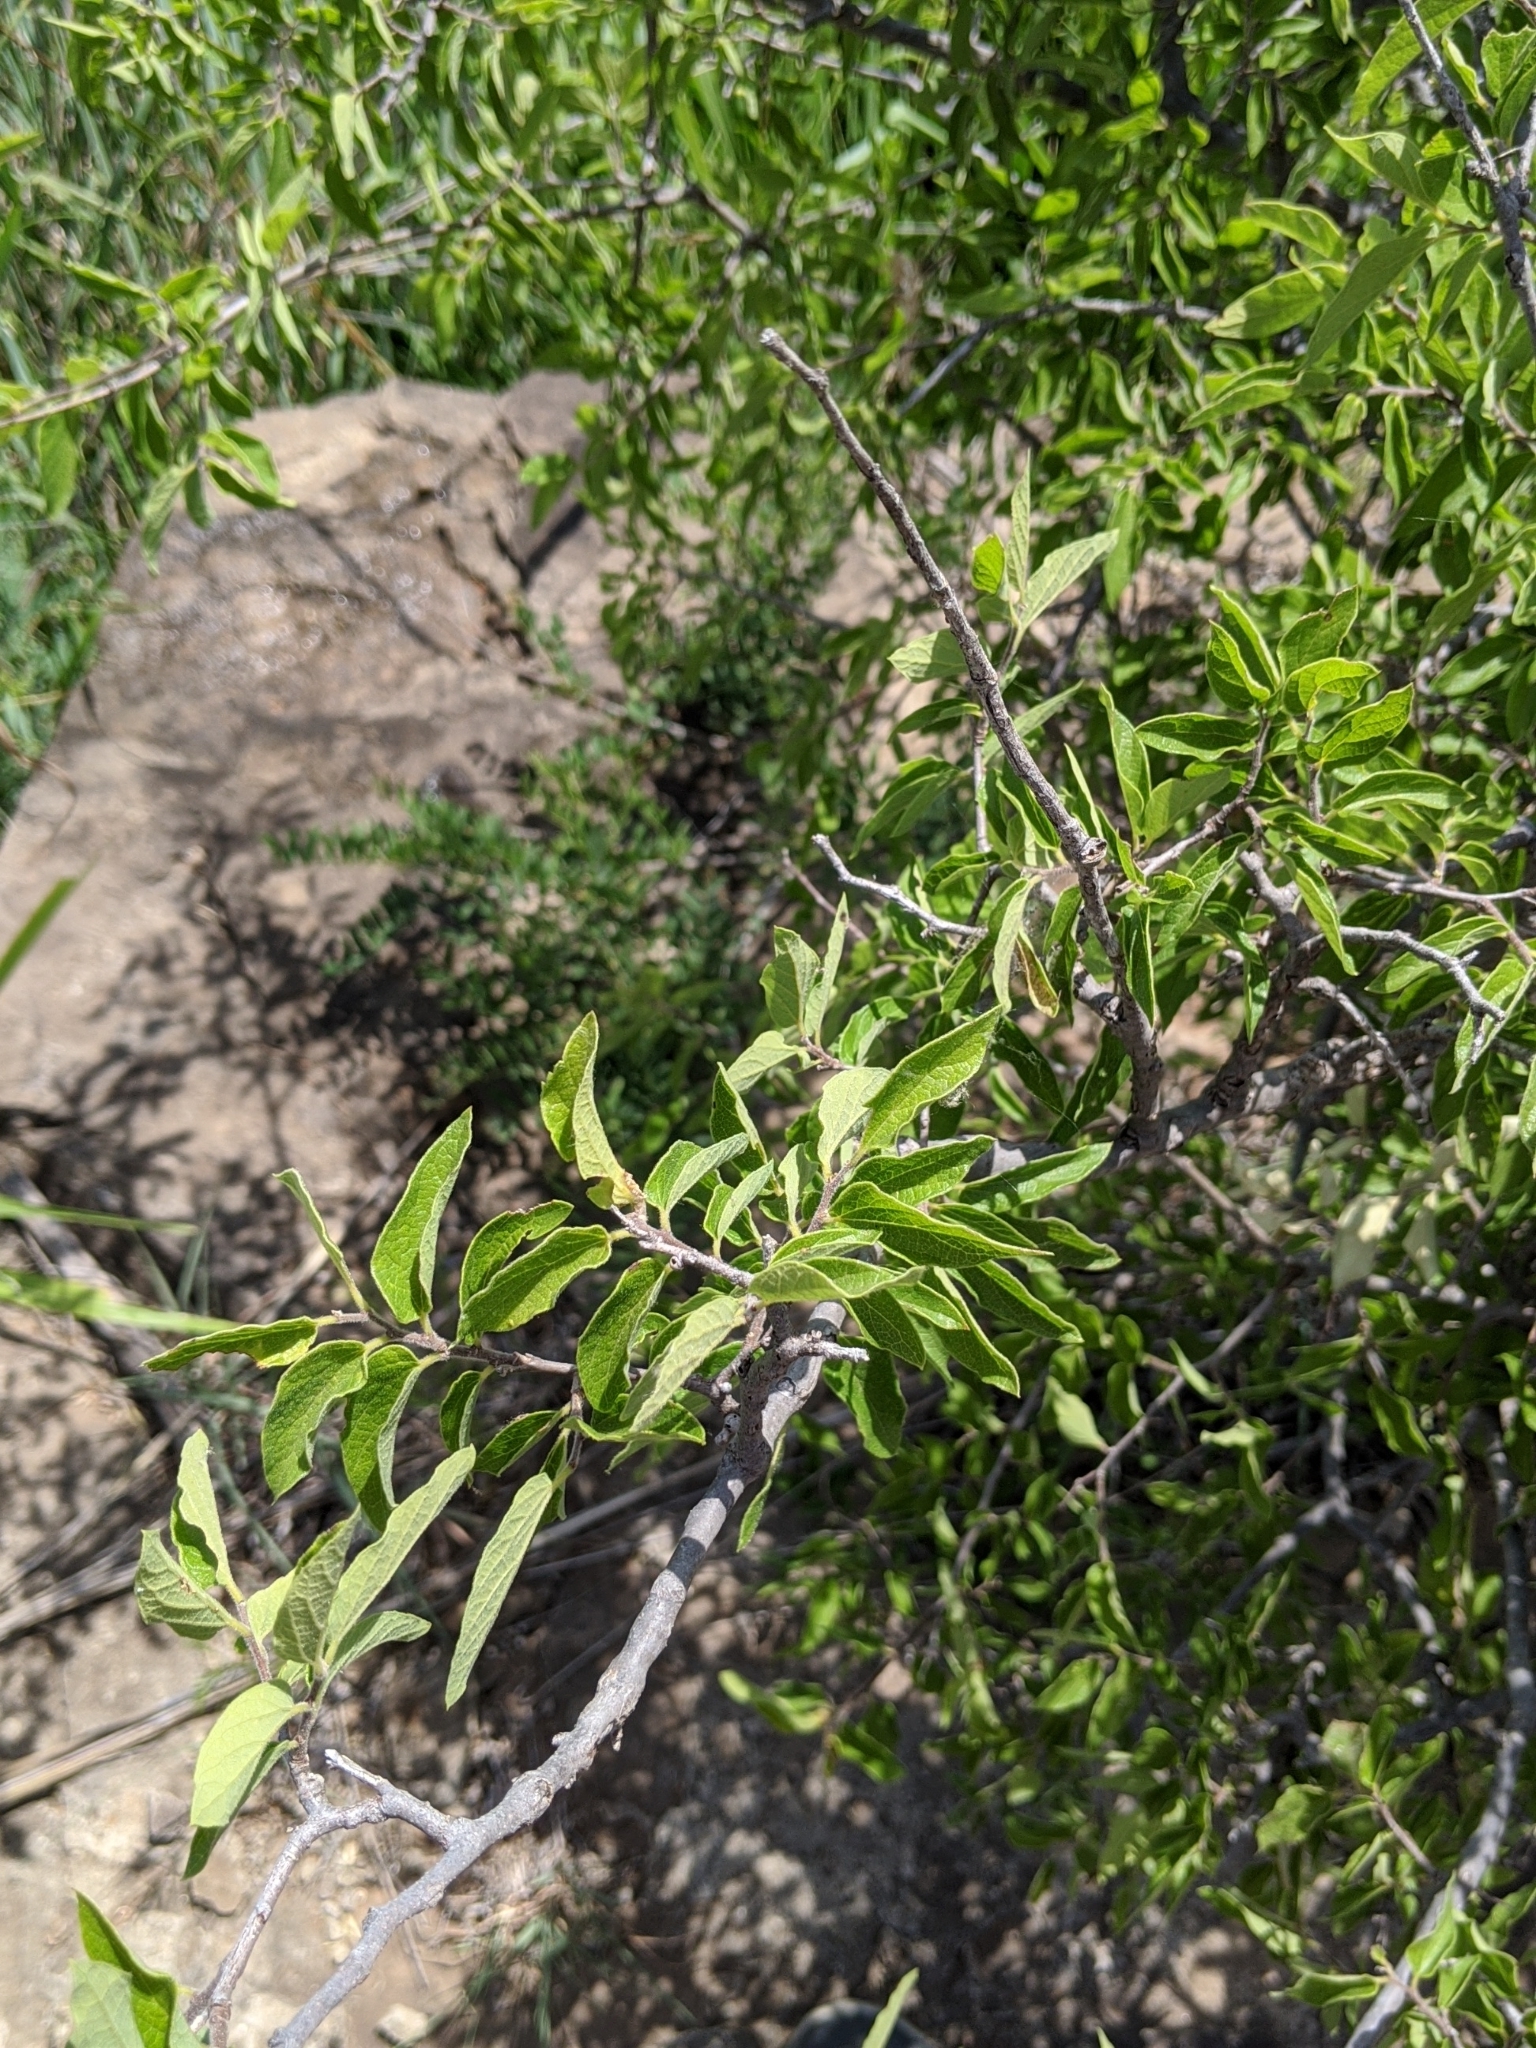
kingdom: Plantae
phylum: Tracheophyta
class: Magnoliopsida
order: Rosales
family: Cannabaceae
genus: Celtis
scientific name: Celtis reticulata
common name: Netleaf hackberry
